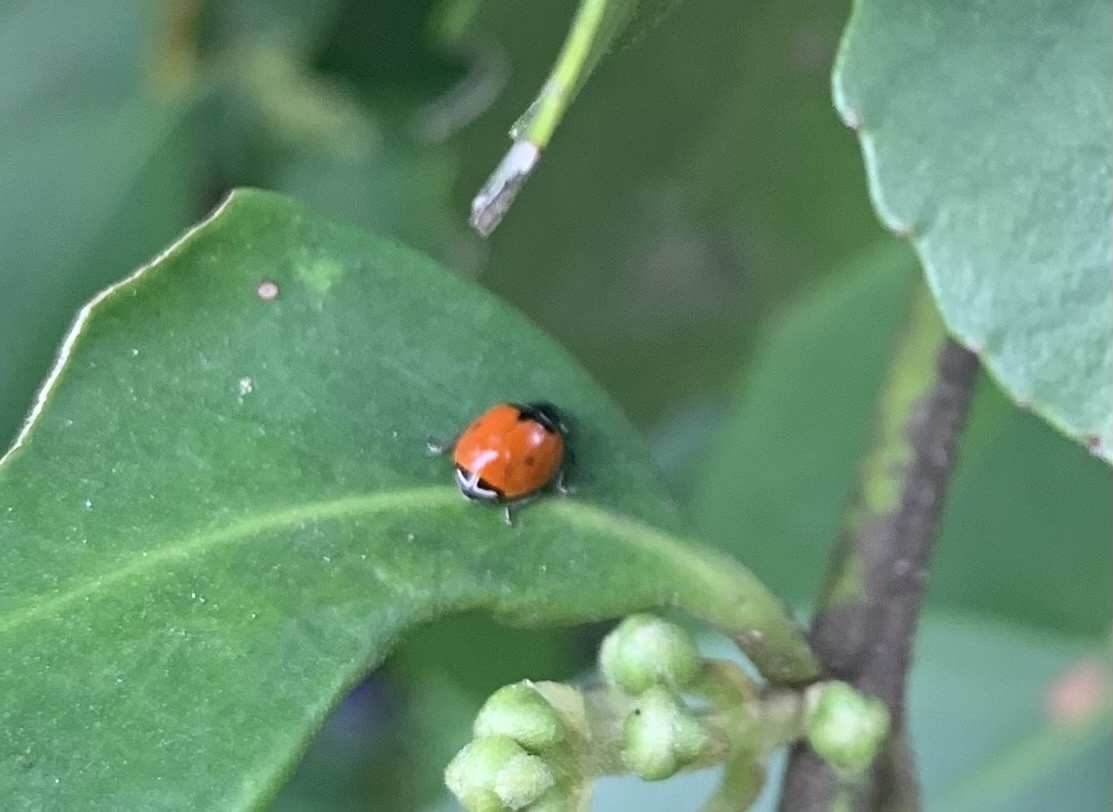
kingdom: Animalia
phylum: Arthropoda
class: Insecta
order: Coleoptera
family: Coccinellidae
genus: Adalia
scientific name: Adalia deficiens
